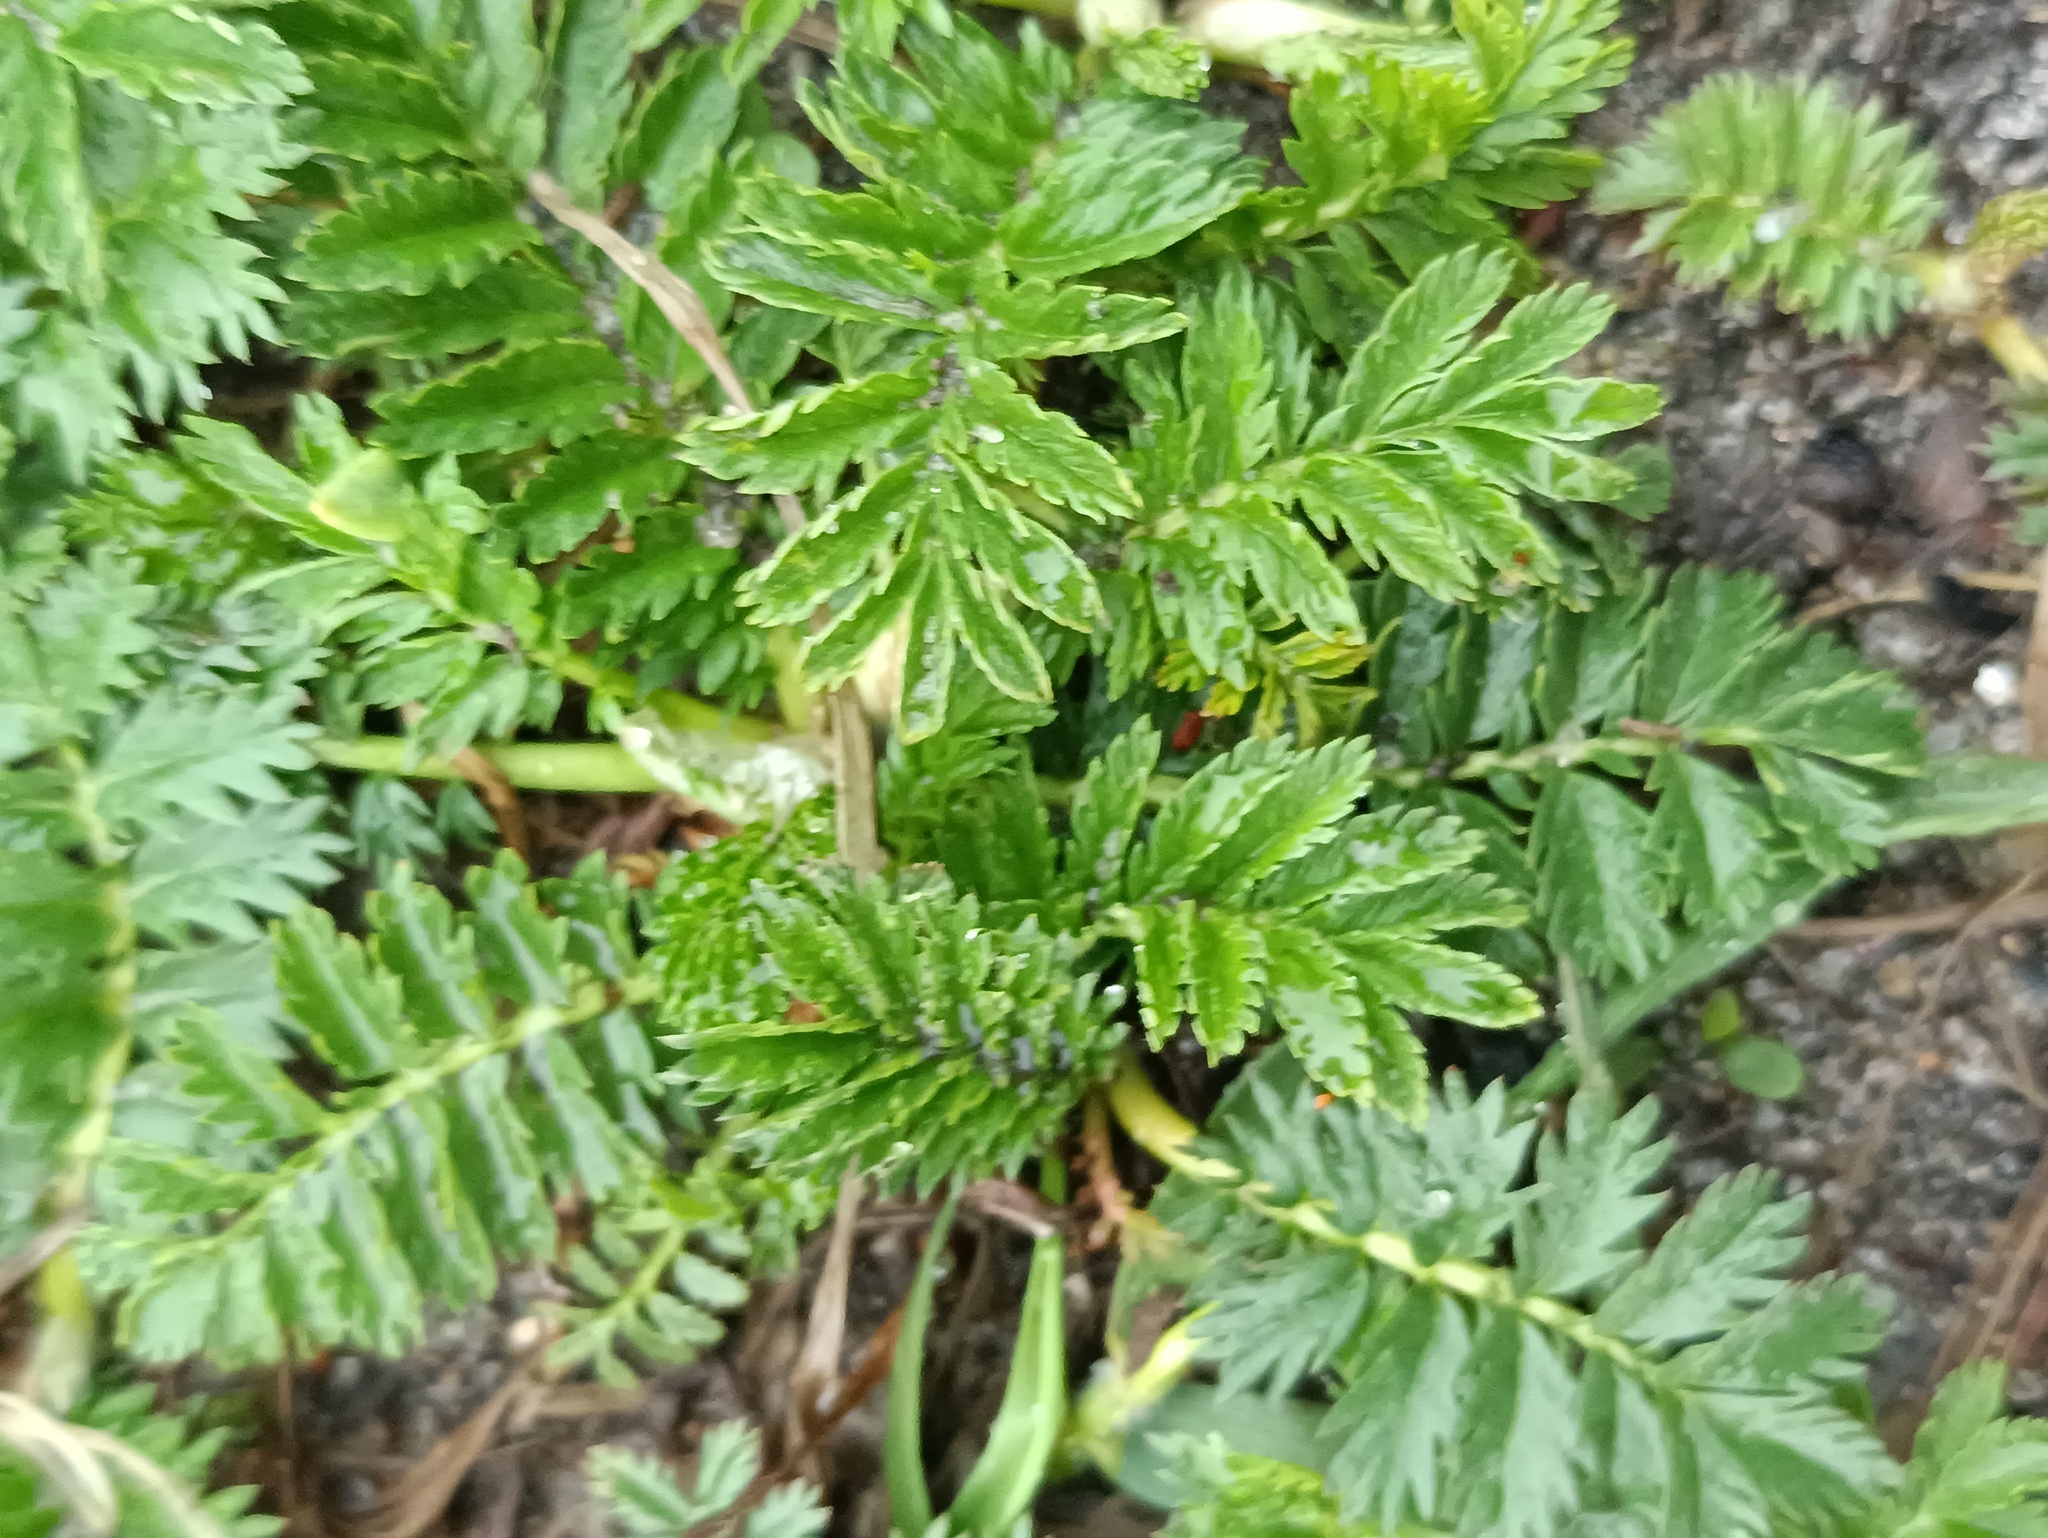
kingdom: Plantae
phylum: Tracheophyta
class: Magnoliopsida
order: Rosales
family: Rosaceae
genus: Argentina
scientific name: Argentina anserina
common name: Common silverweed
